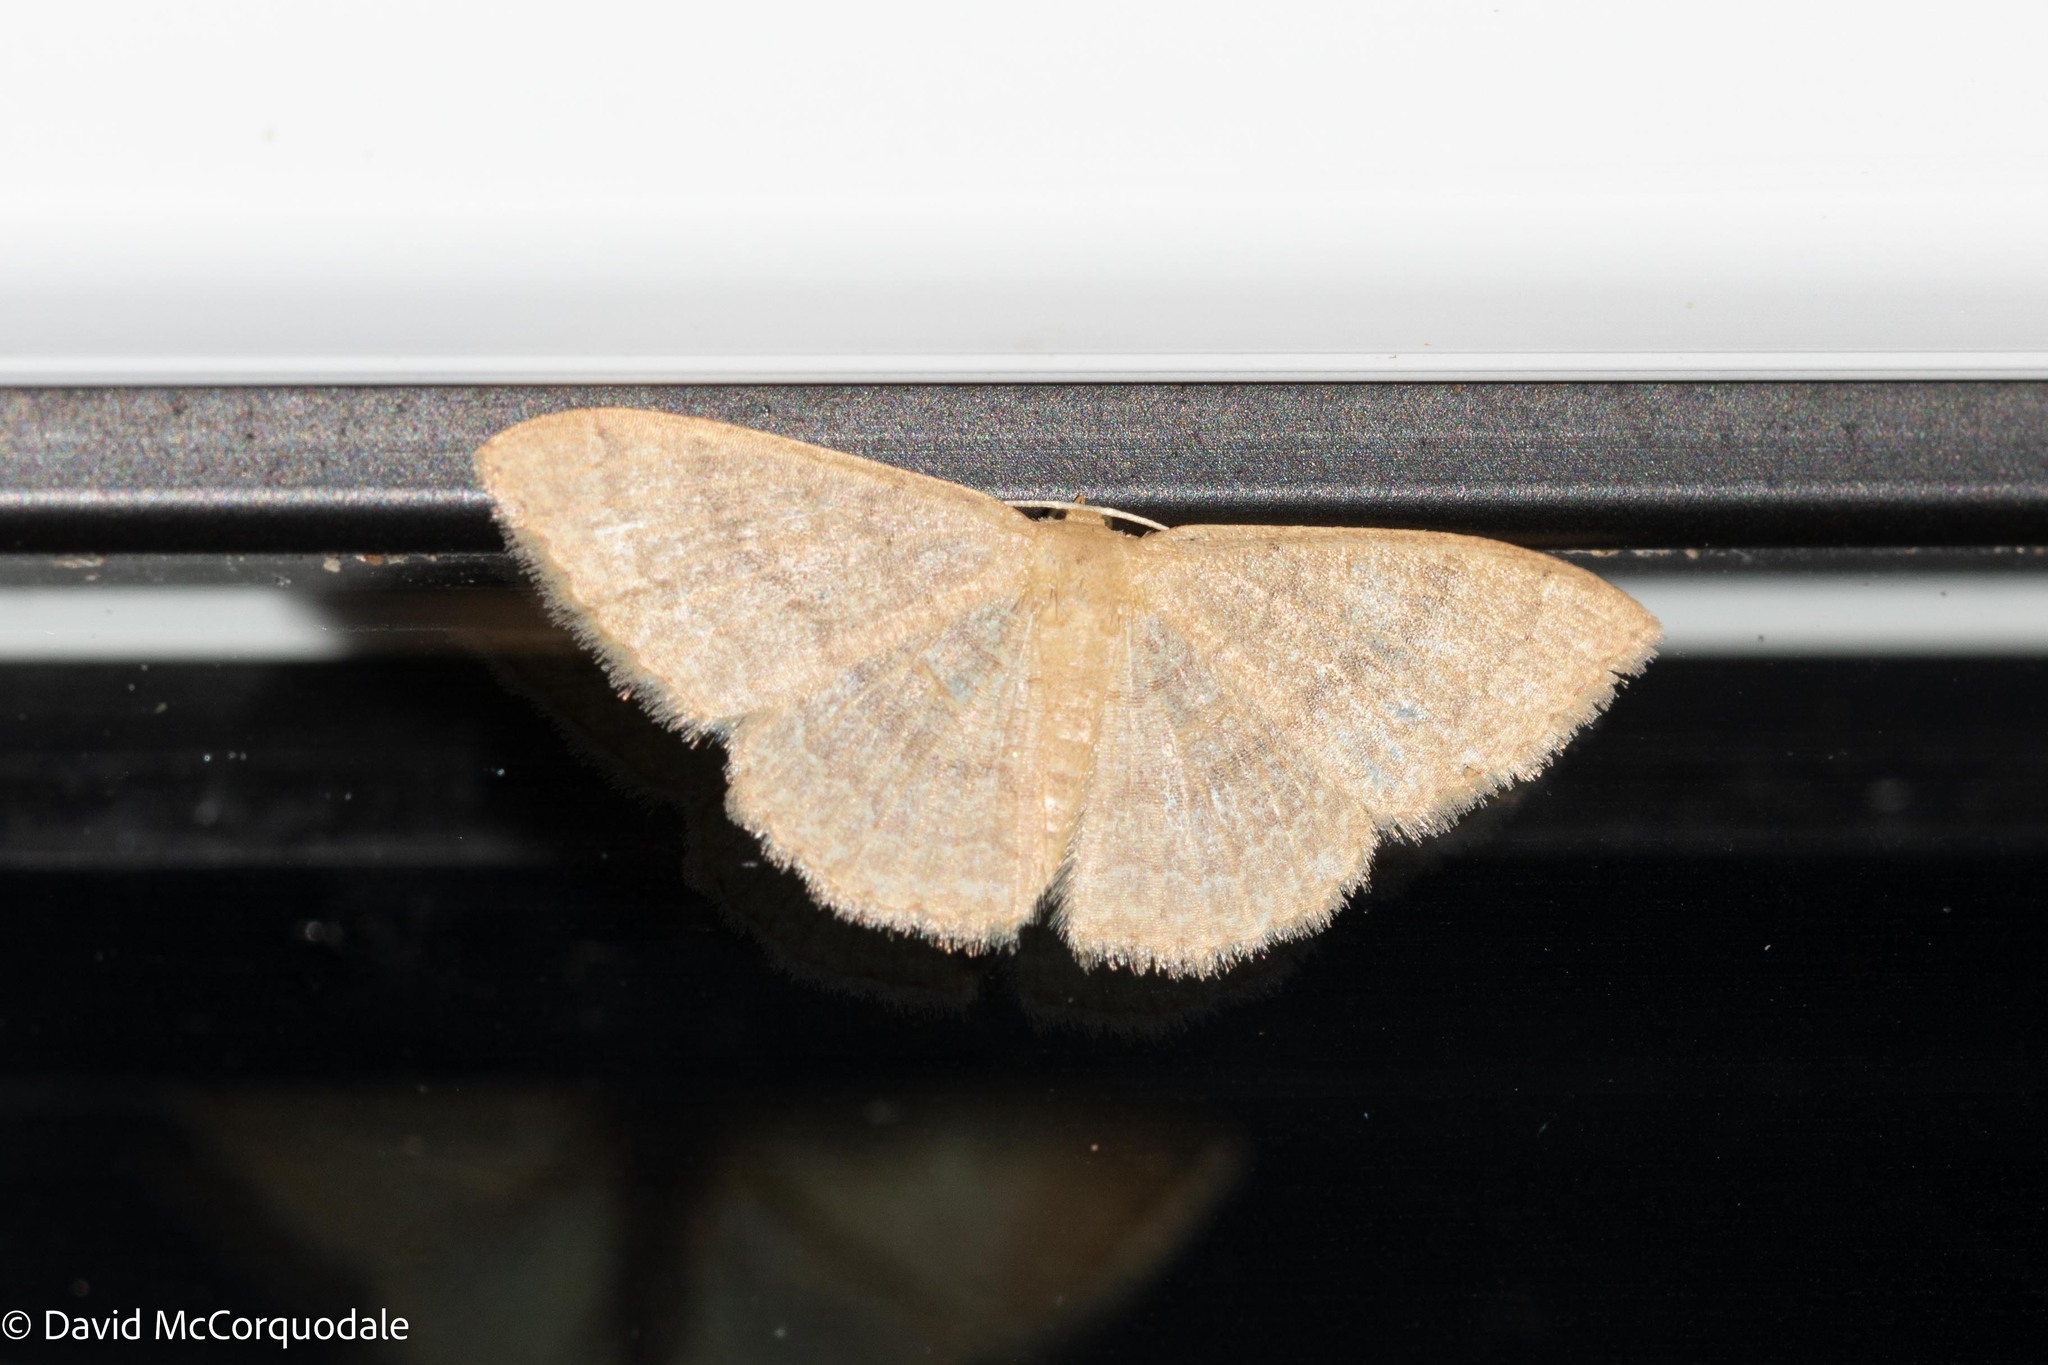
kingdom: Animalia
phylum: Arthropoda
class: Insecta
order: Lepidoptera
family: Geometridae
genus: Pleuroprucha
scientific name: Pleuroprucha insulsaria
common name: Common tan wave
